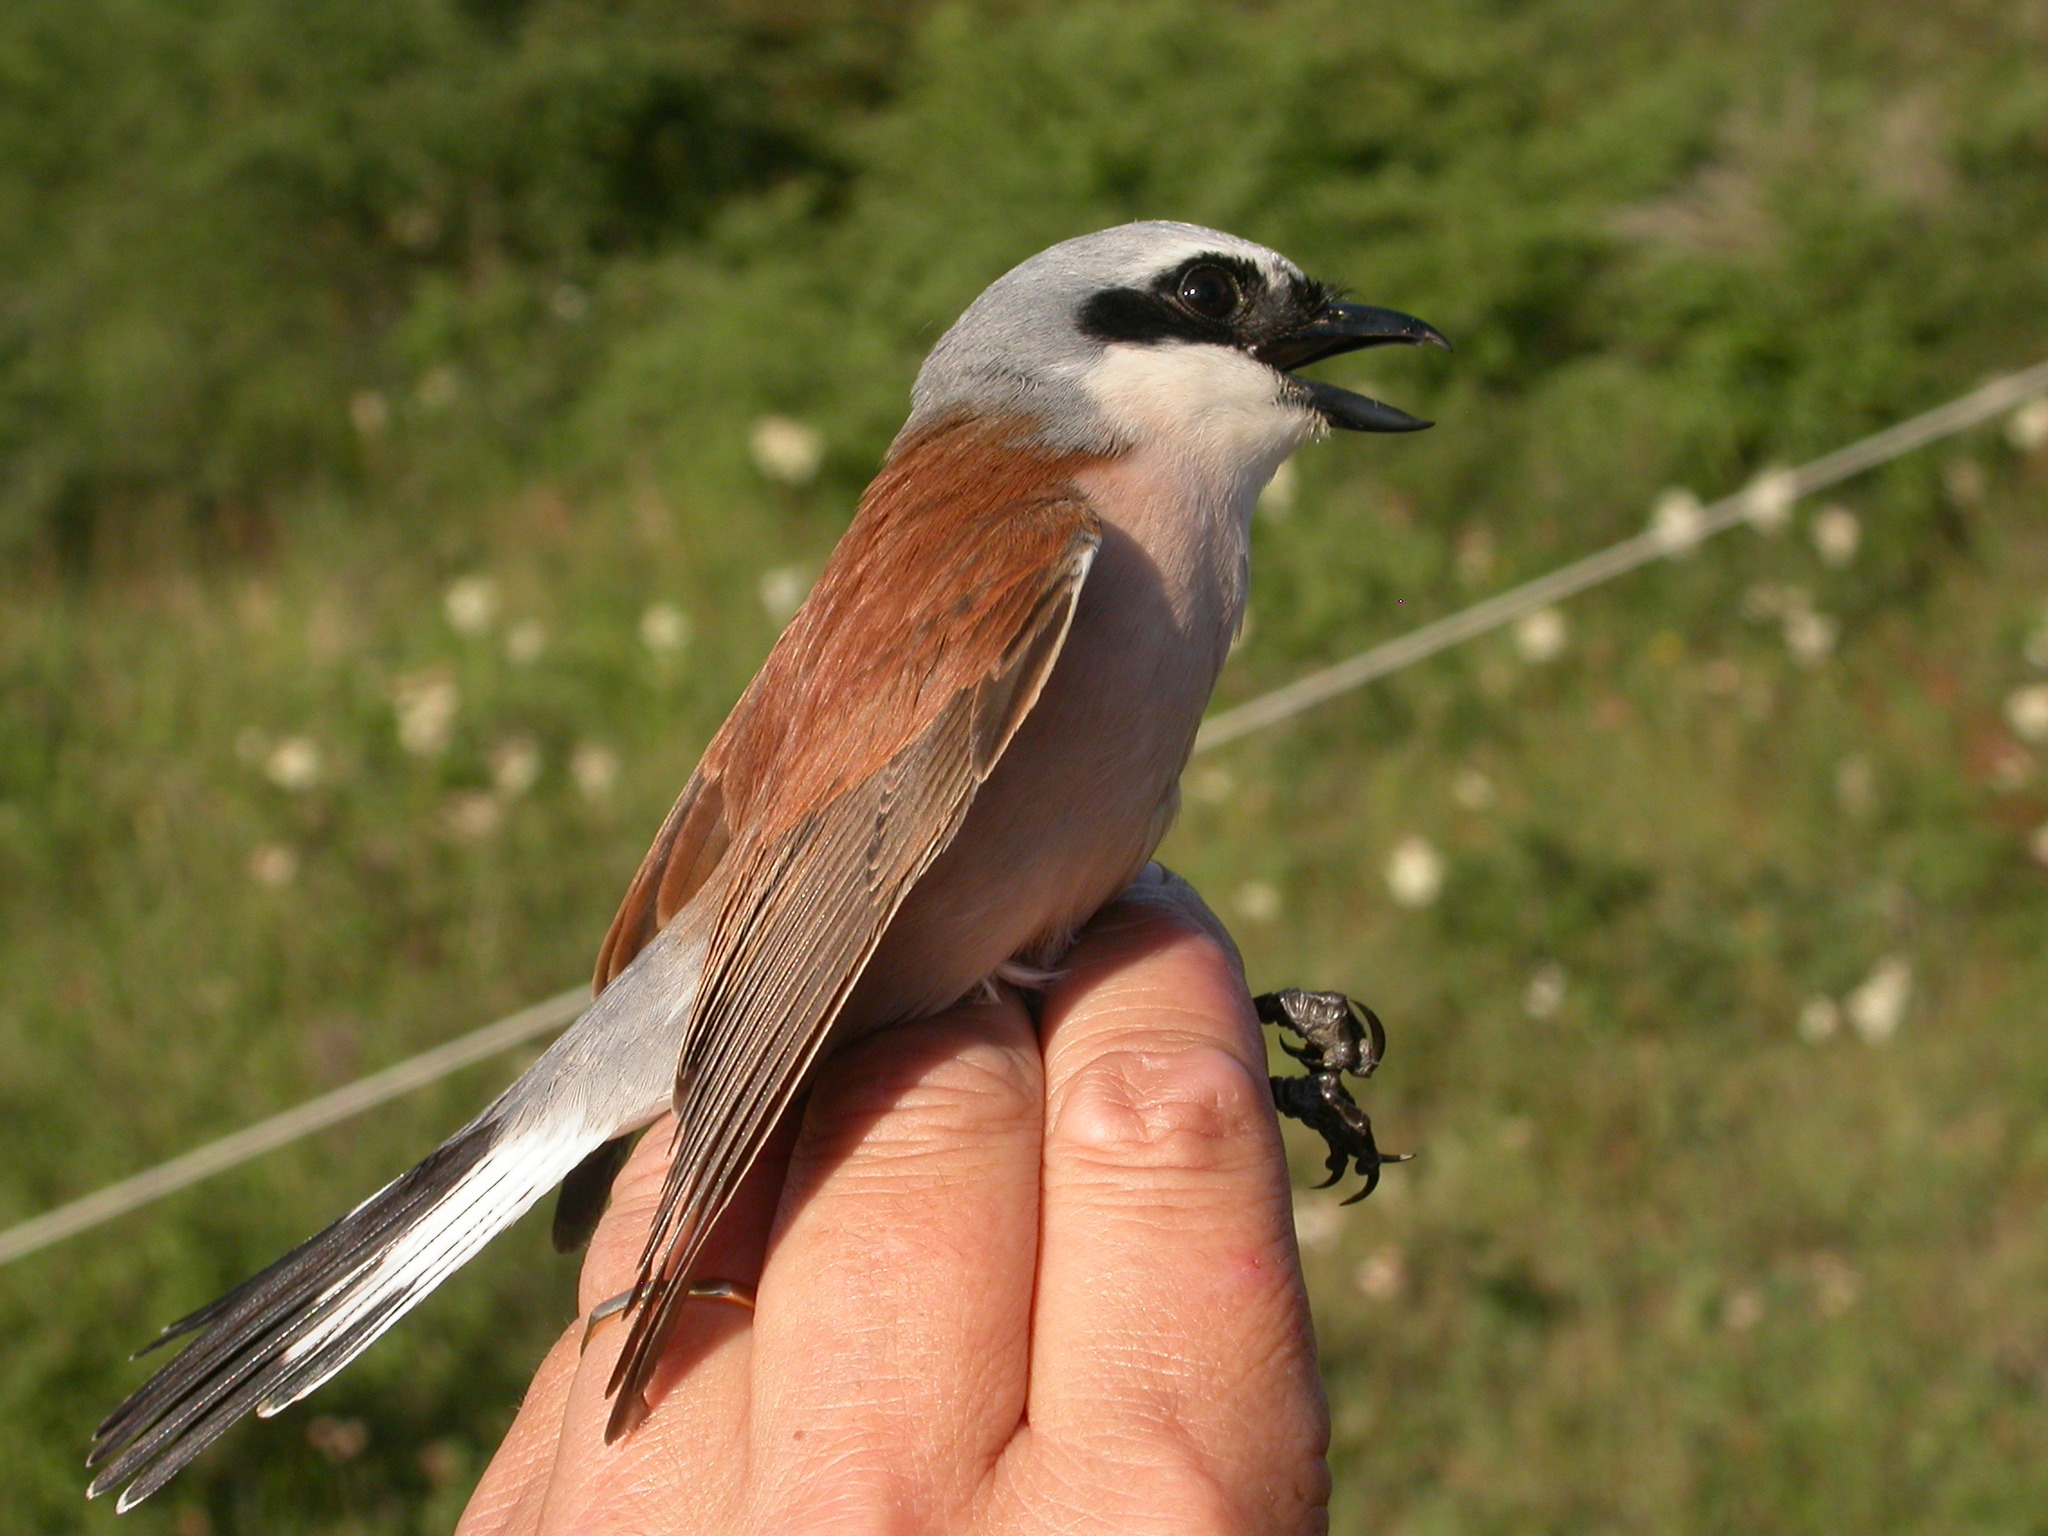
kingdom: Animalia
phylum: Chordata
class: Aves
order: Passeriformes
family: Laniidae
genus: Lanius
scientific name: Lanius collurio
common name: Red-backed shrike
